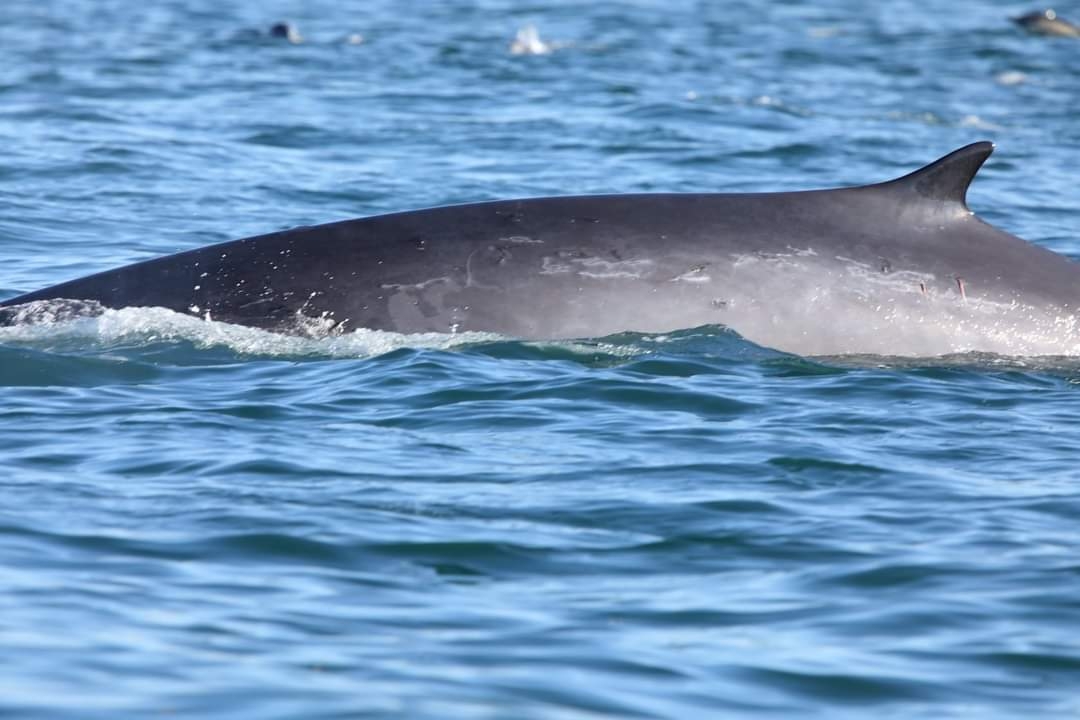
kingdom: Animalia
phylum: Chordata
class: Mammalia
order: Cetacea
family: Balaenopteridae
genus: Balaenoptera
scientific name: Balaenoptera physalus
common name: Fin whale
